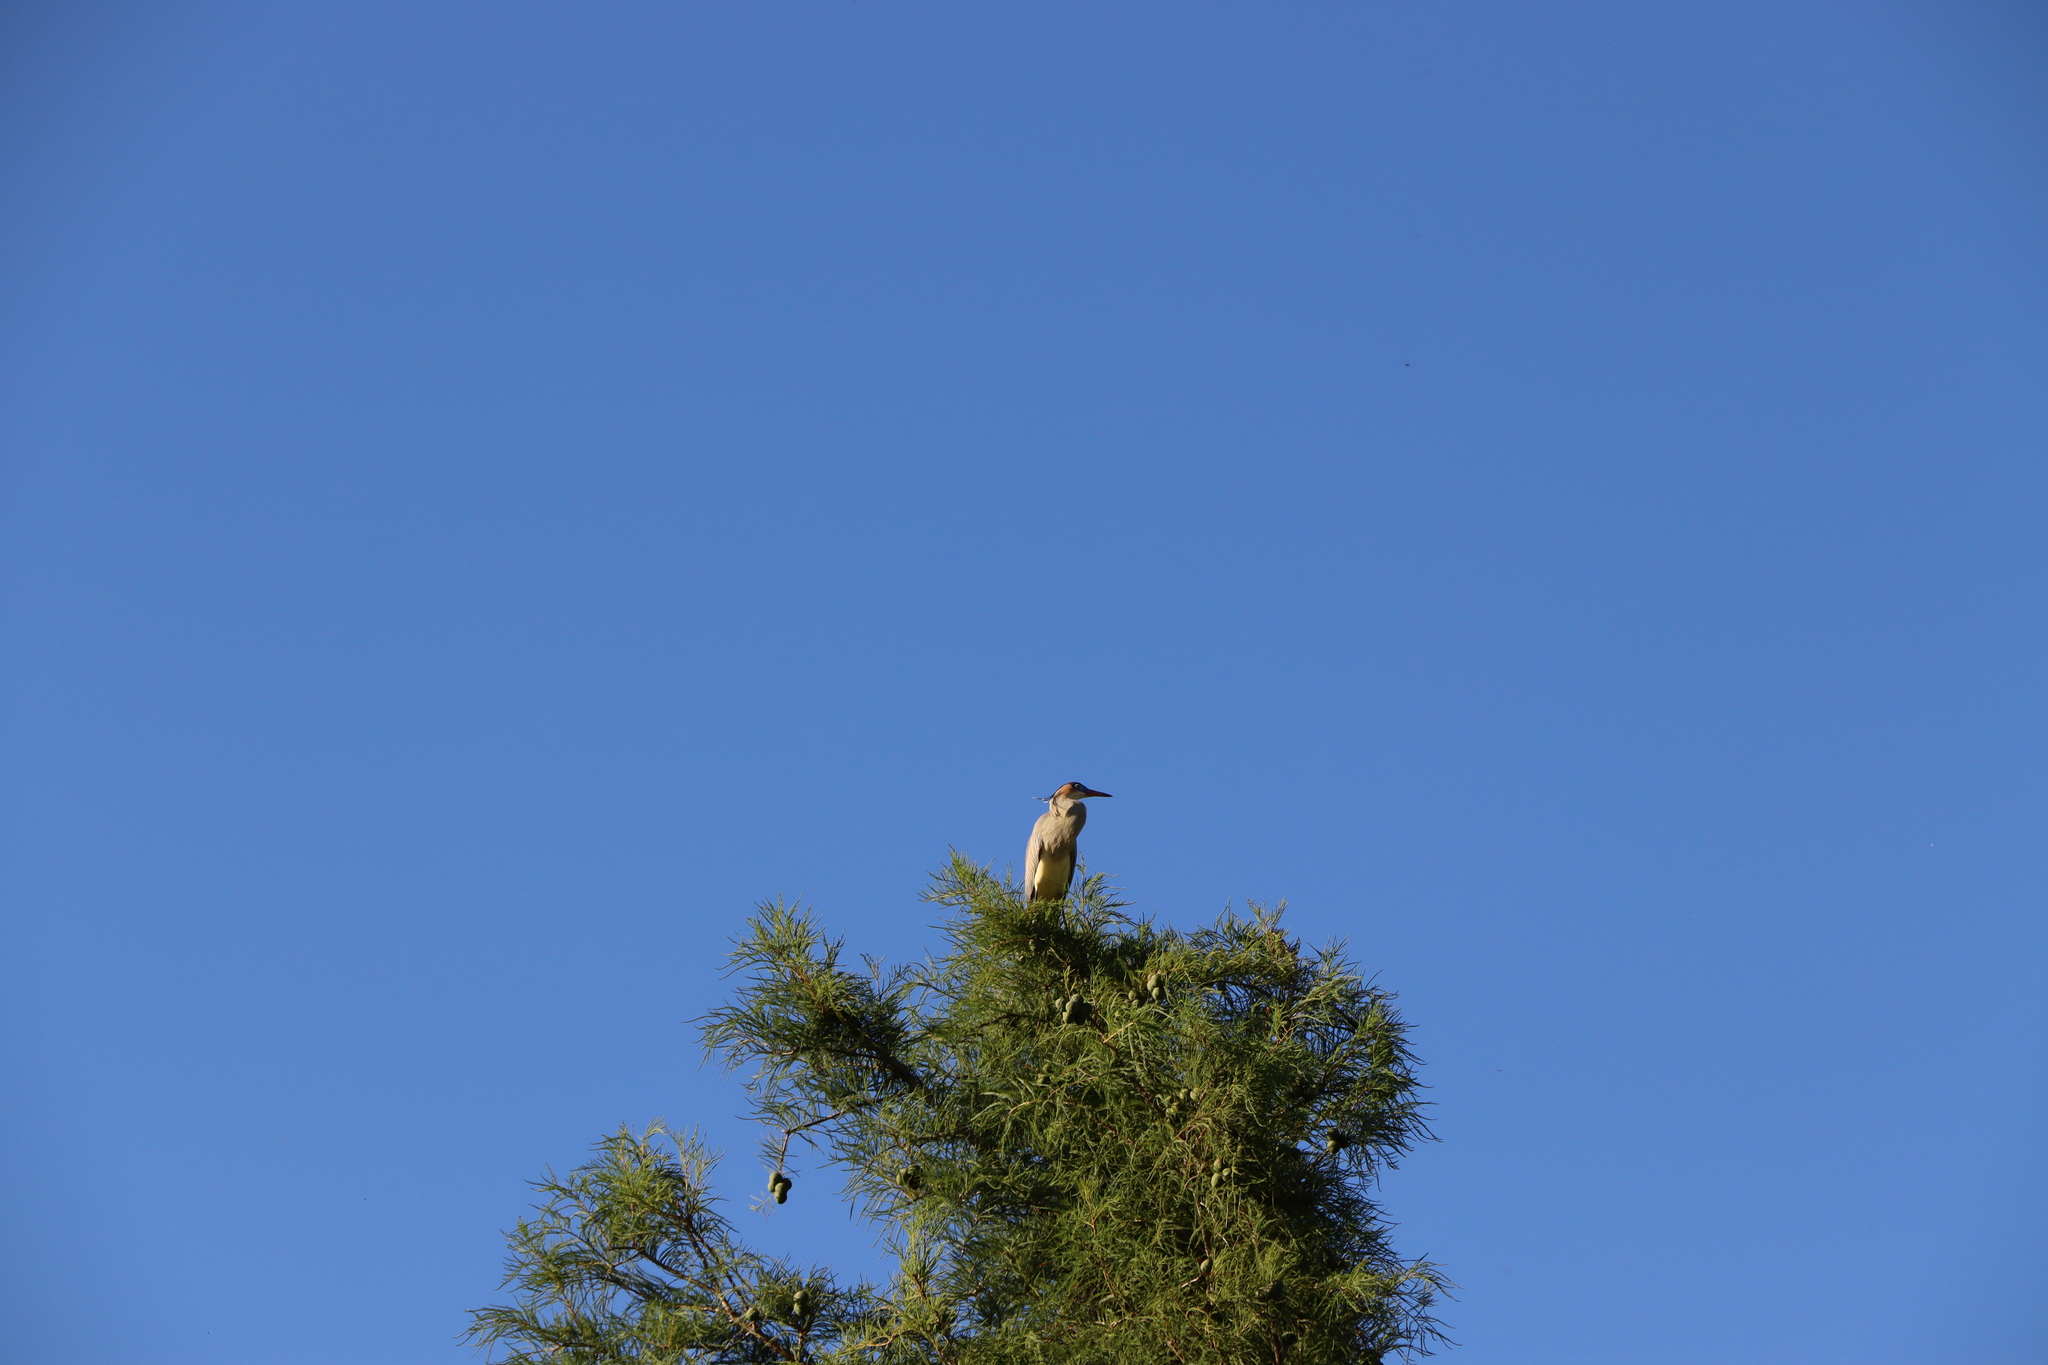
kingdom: Animalia
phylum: Chordata
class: Aves
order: Pelecaniformes
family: Ardeidae
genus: Syrigma
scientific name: Syrigma sibilatrix
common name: Whistling heron
